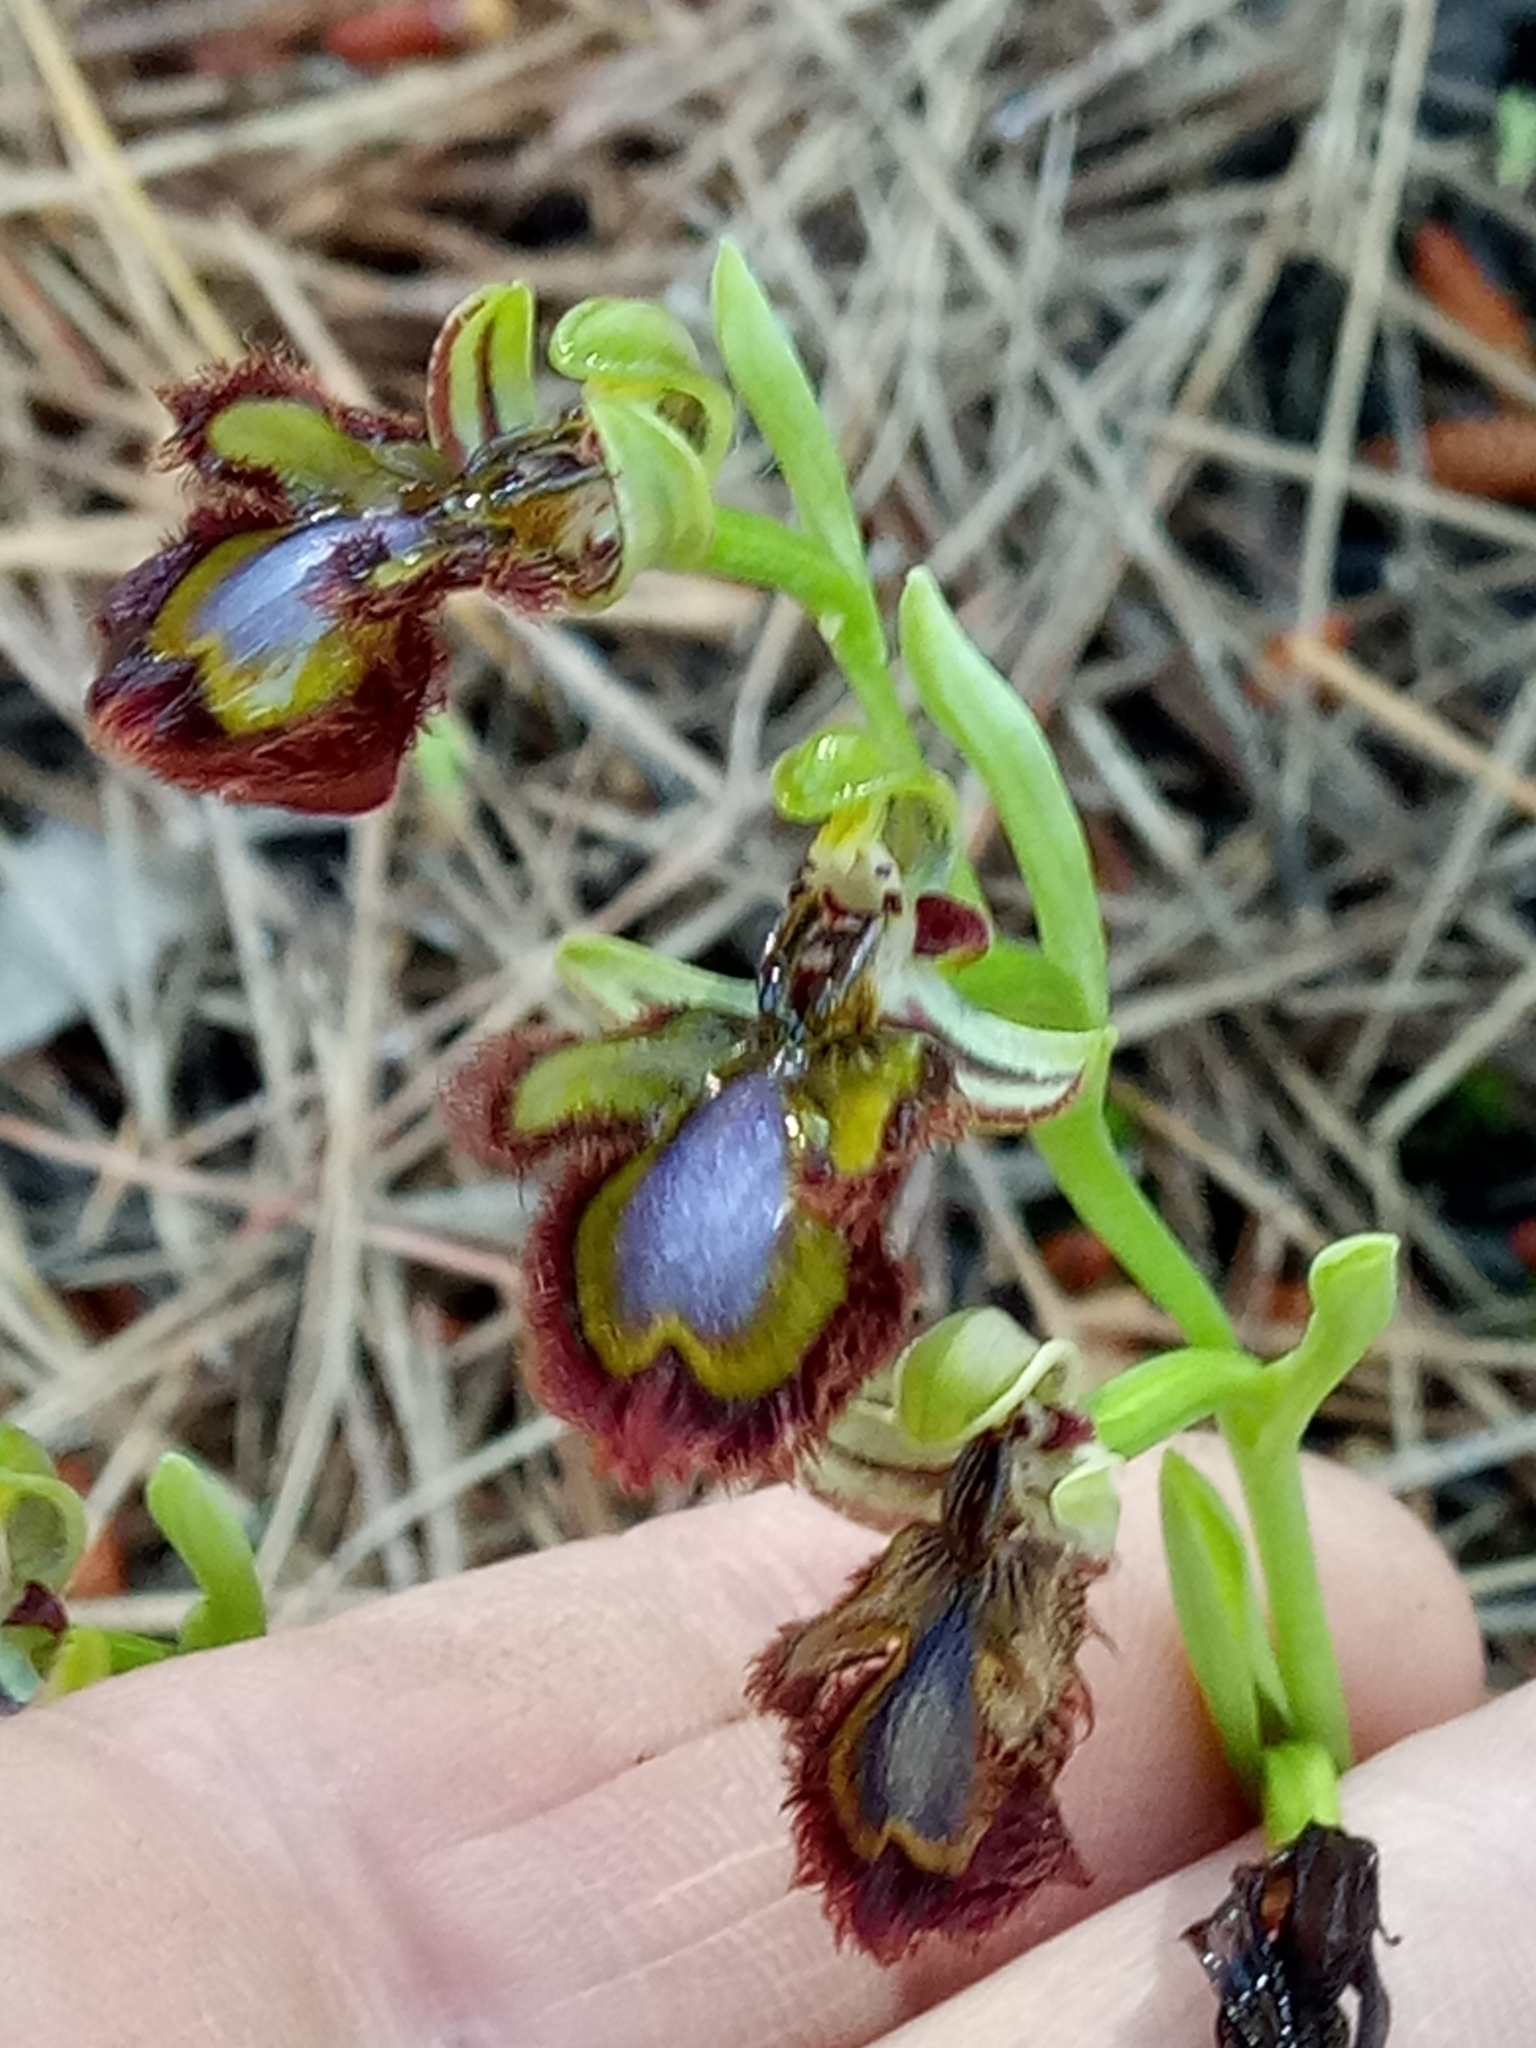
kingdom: Plantae
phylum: Tracheophyta
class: Liliopsida
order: Asparagales
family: Orchidaceae
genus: Ophrys
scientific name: Ophrys speculum
